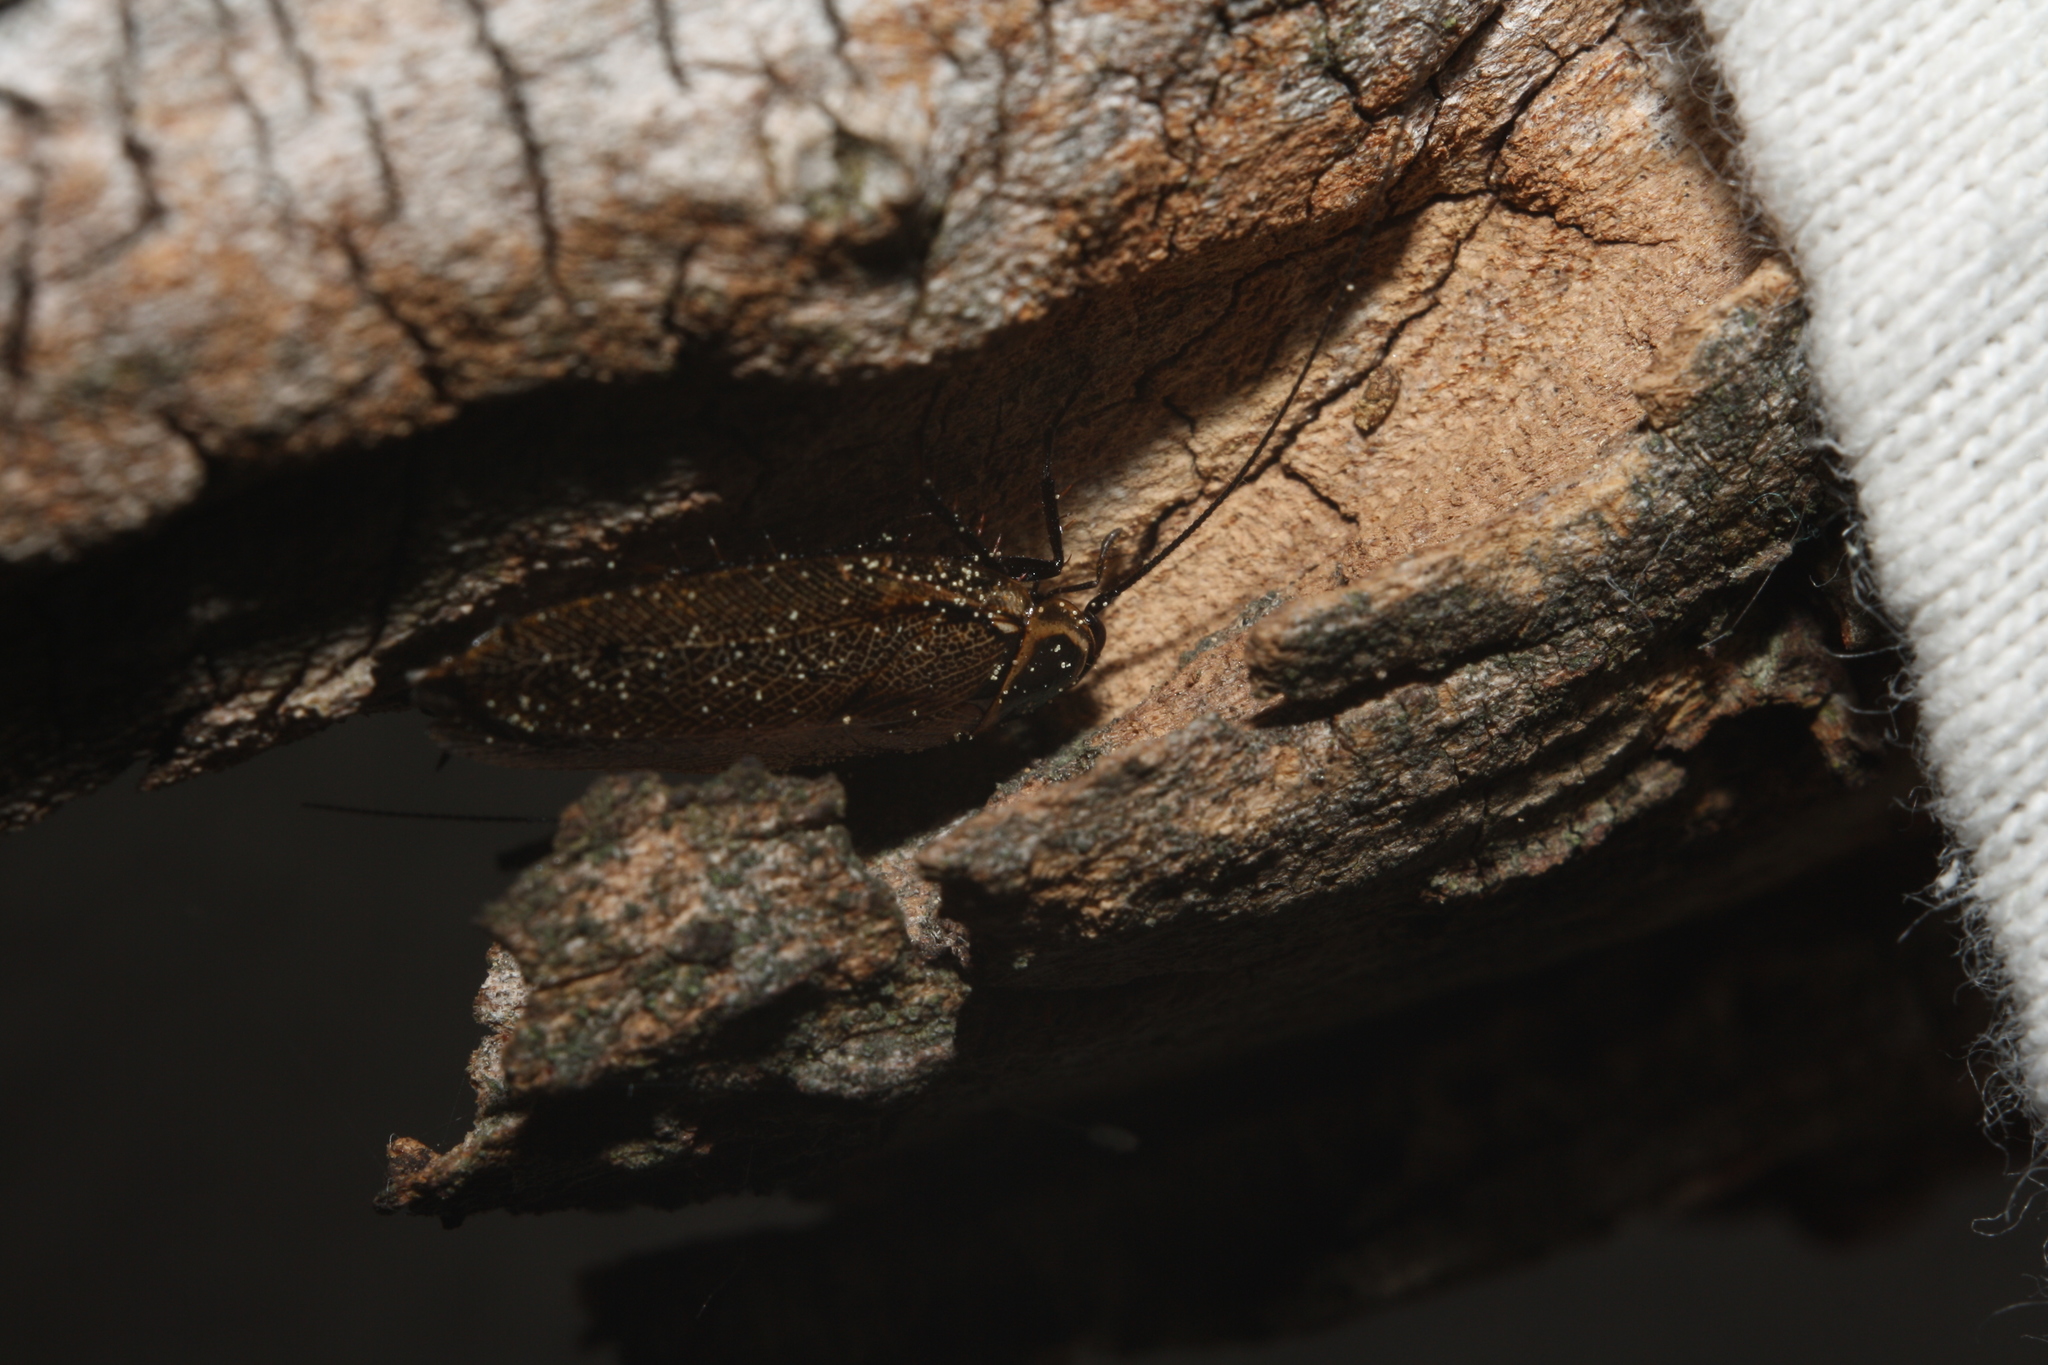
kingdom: Animalia
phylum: Arthropoda
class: Insecta
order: Blattodea
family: Ectobiidae
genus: Ectobius
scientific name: Ectobius sylvestris
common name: Forest cockroach
